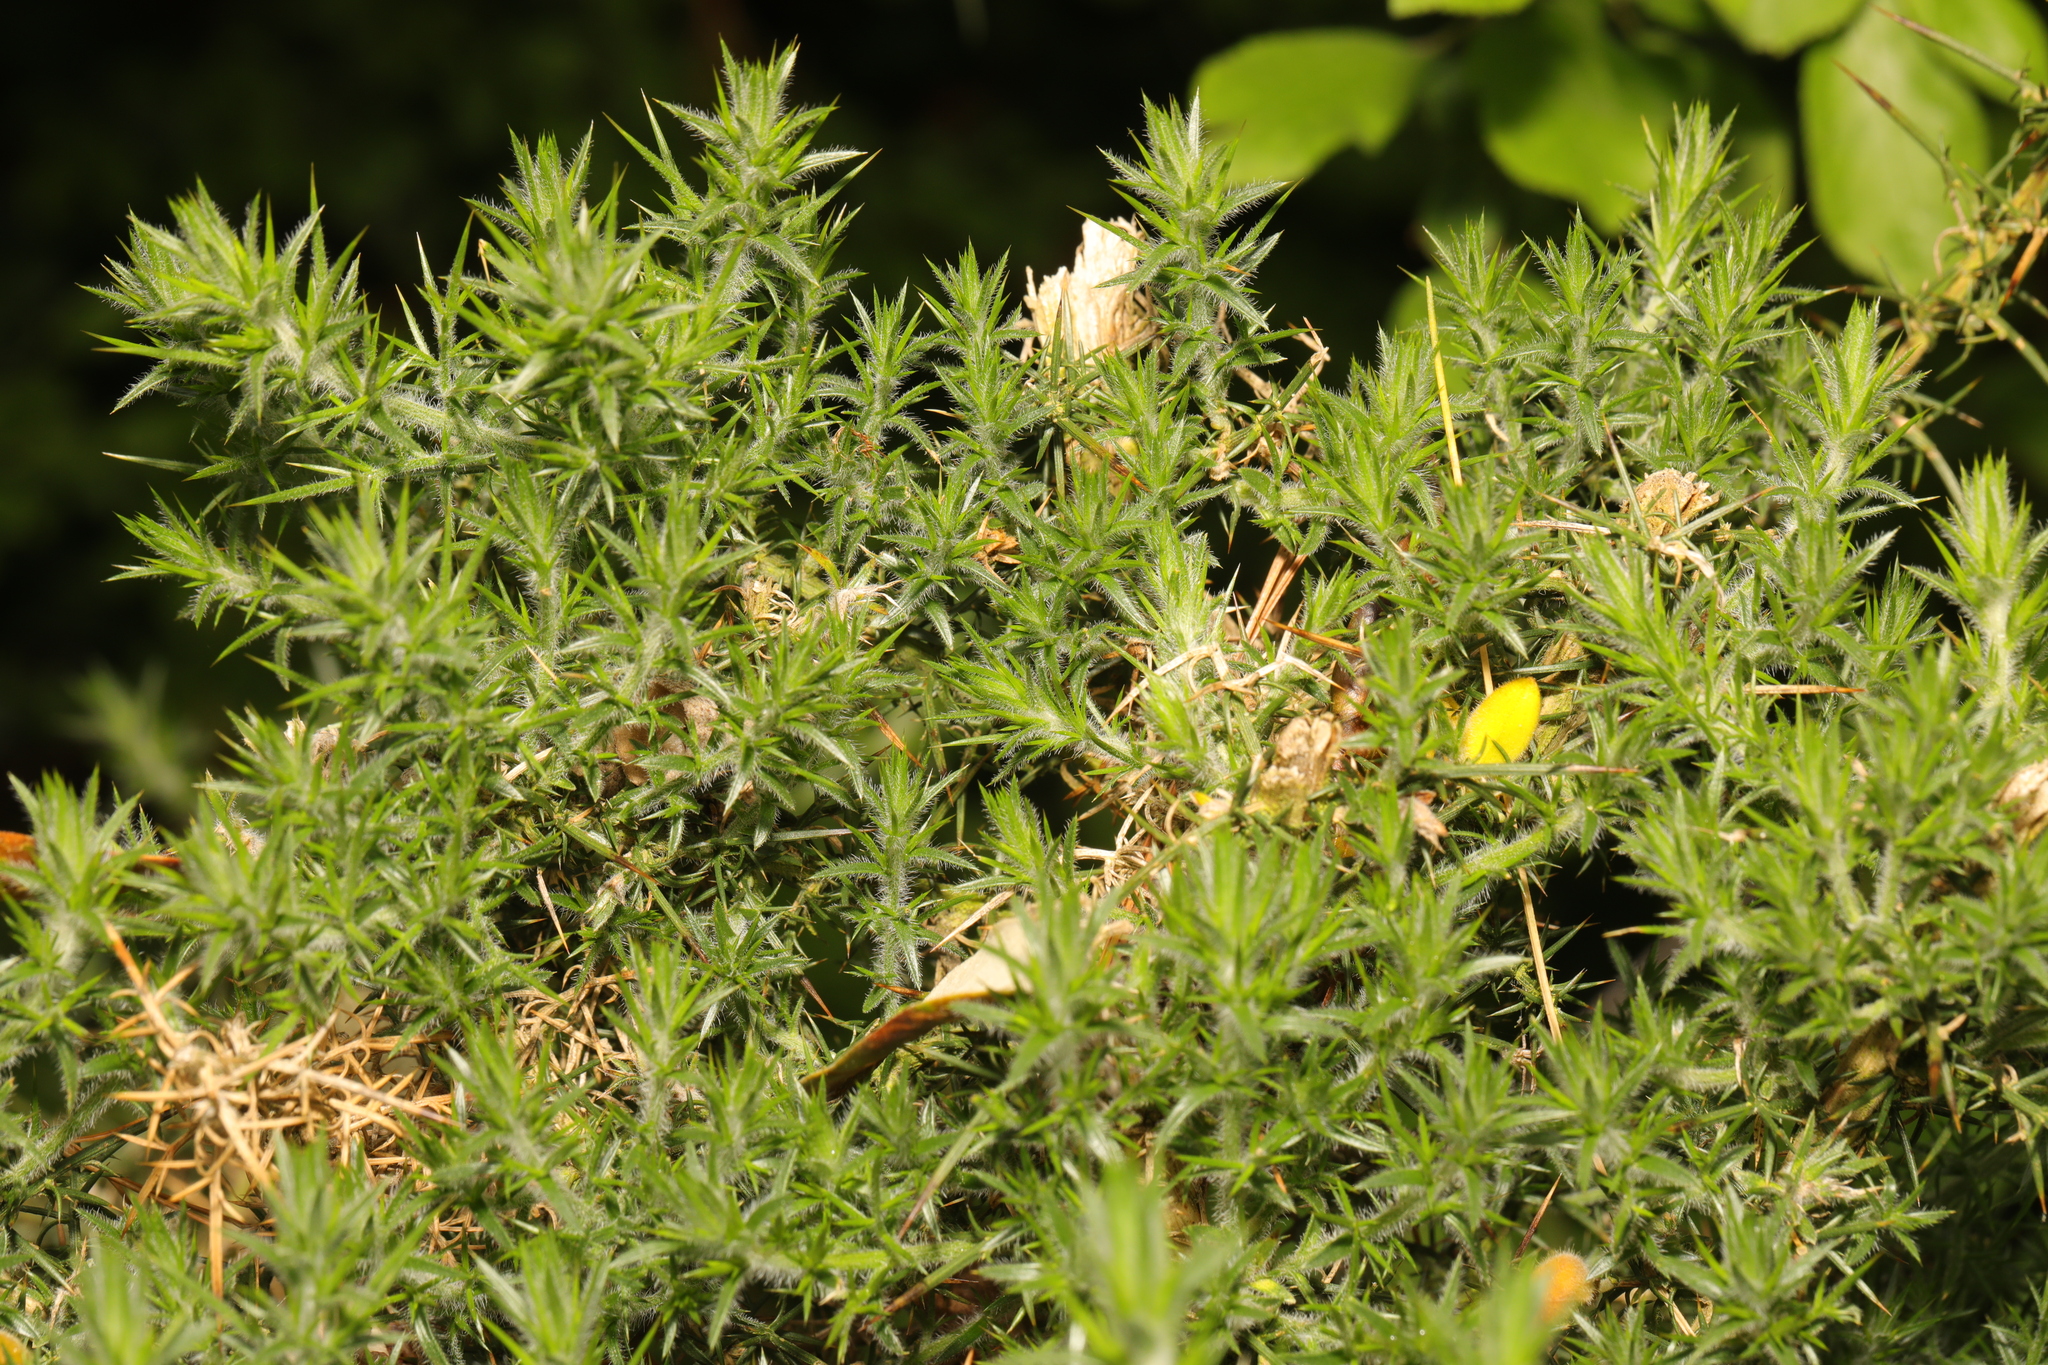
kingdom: Plantae
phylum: Tracheophyta
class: Magnoliopsida
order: Fabales
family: Fabaceae
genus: Ulex
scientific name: Ulex europaeus
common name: Common gorse
